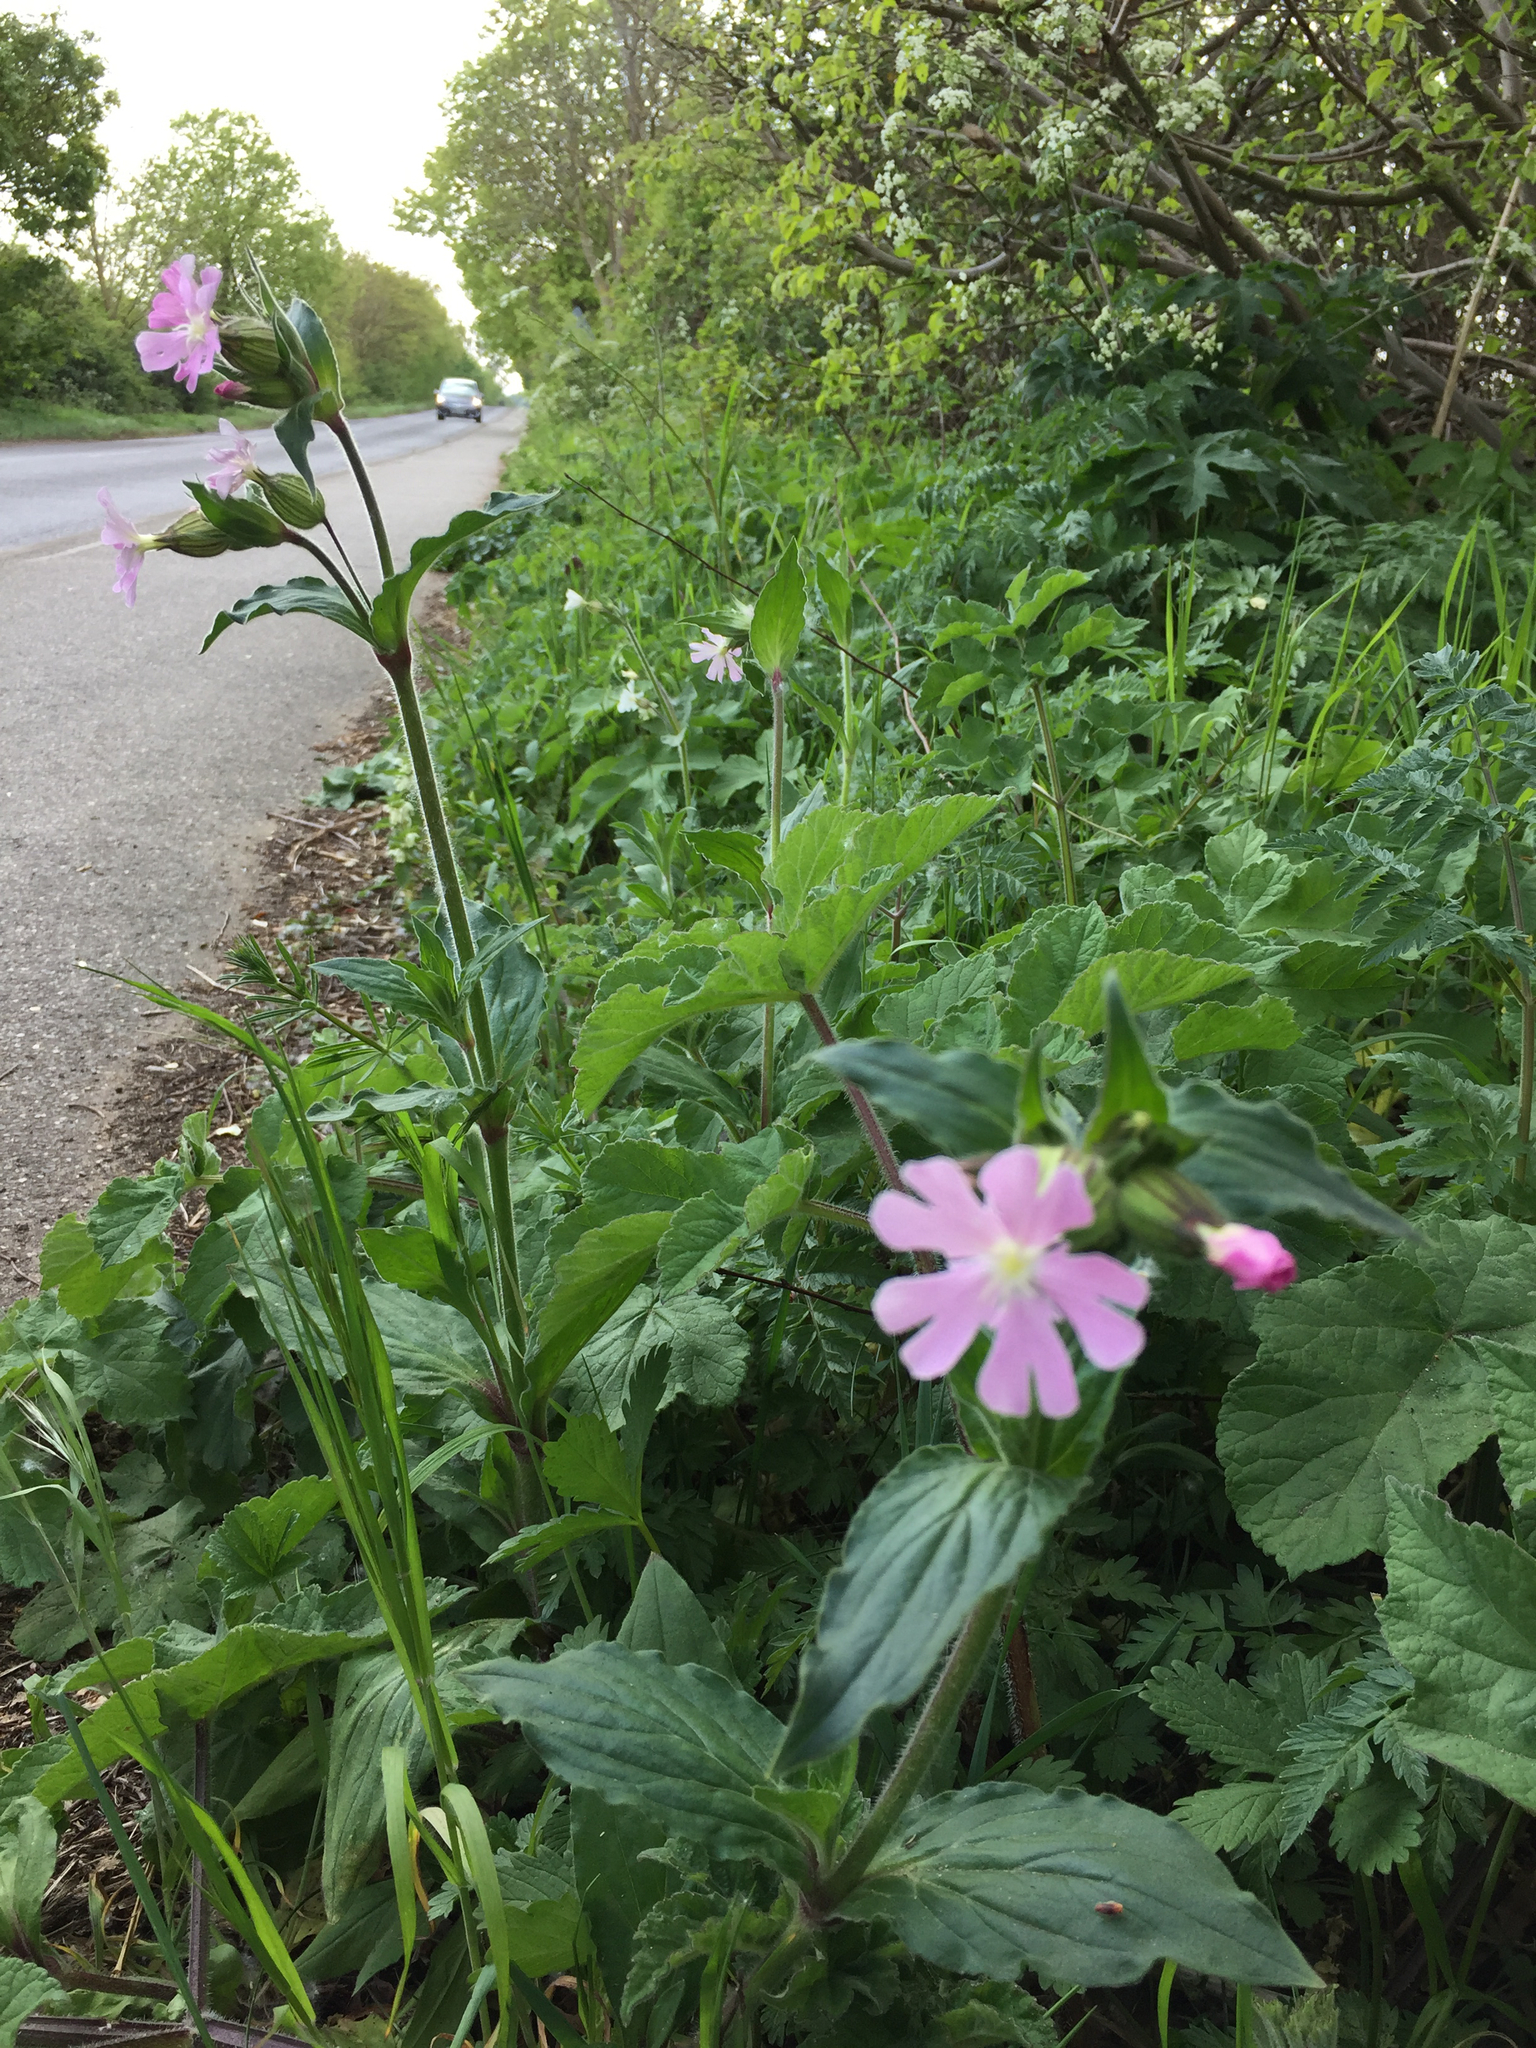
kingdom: Plantae
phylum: Tracheophyta
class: Magnoliopsida
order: Caryophyllales
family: Caryophyllaceae
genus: Silene
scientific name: Silene dioica
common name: Red campion
